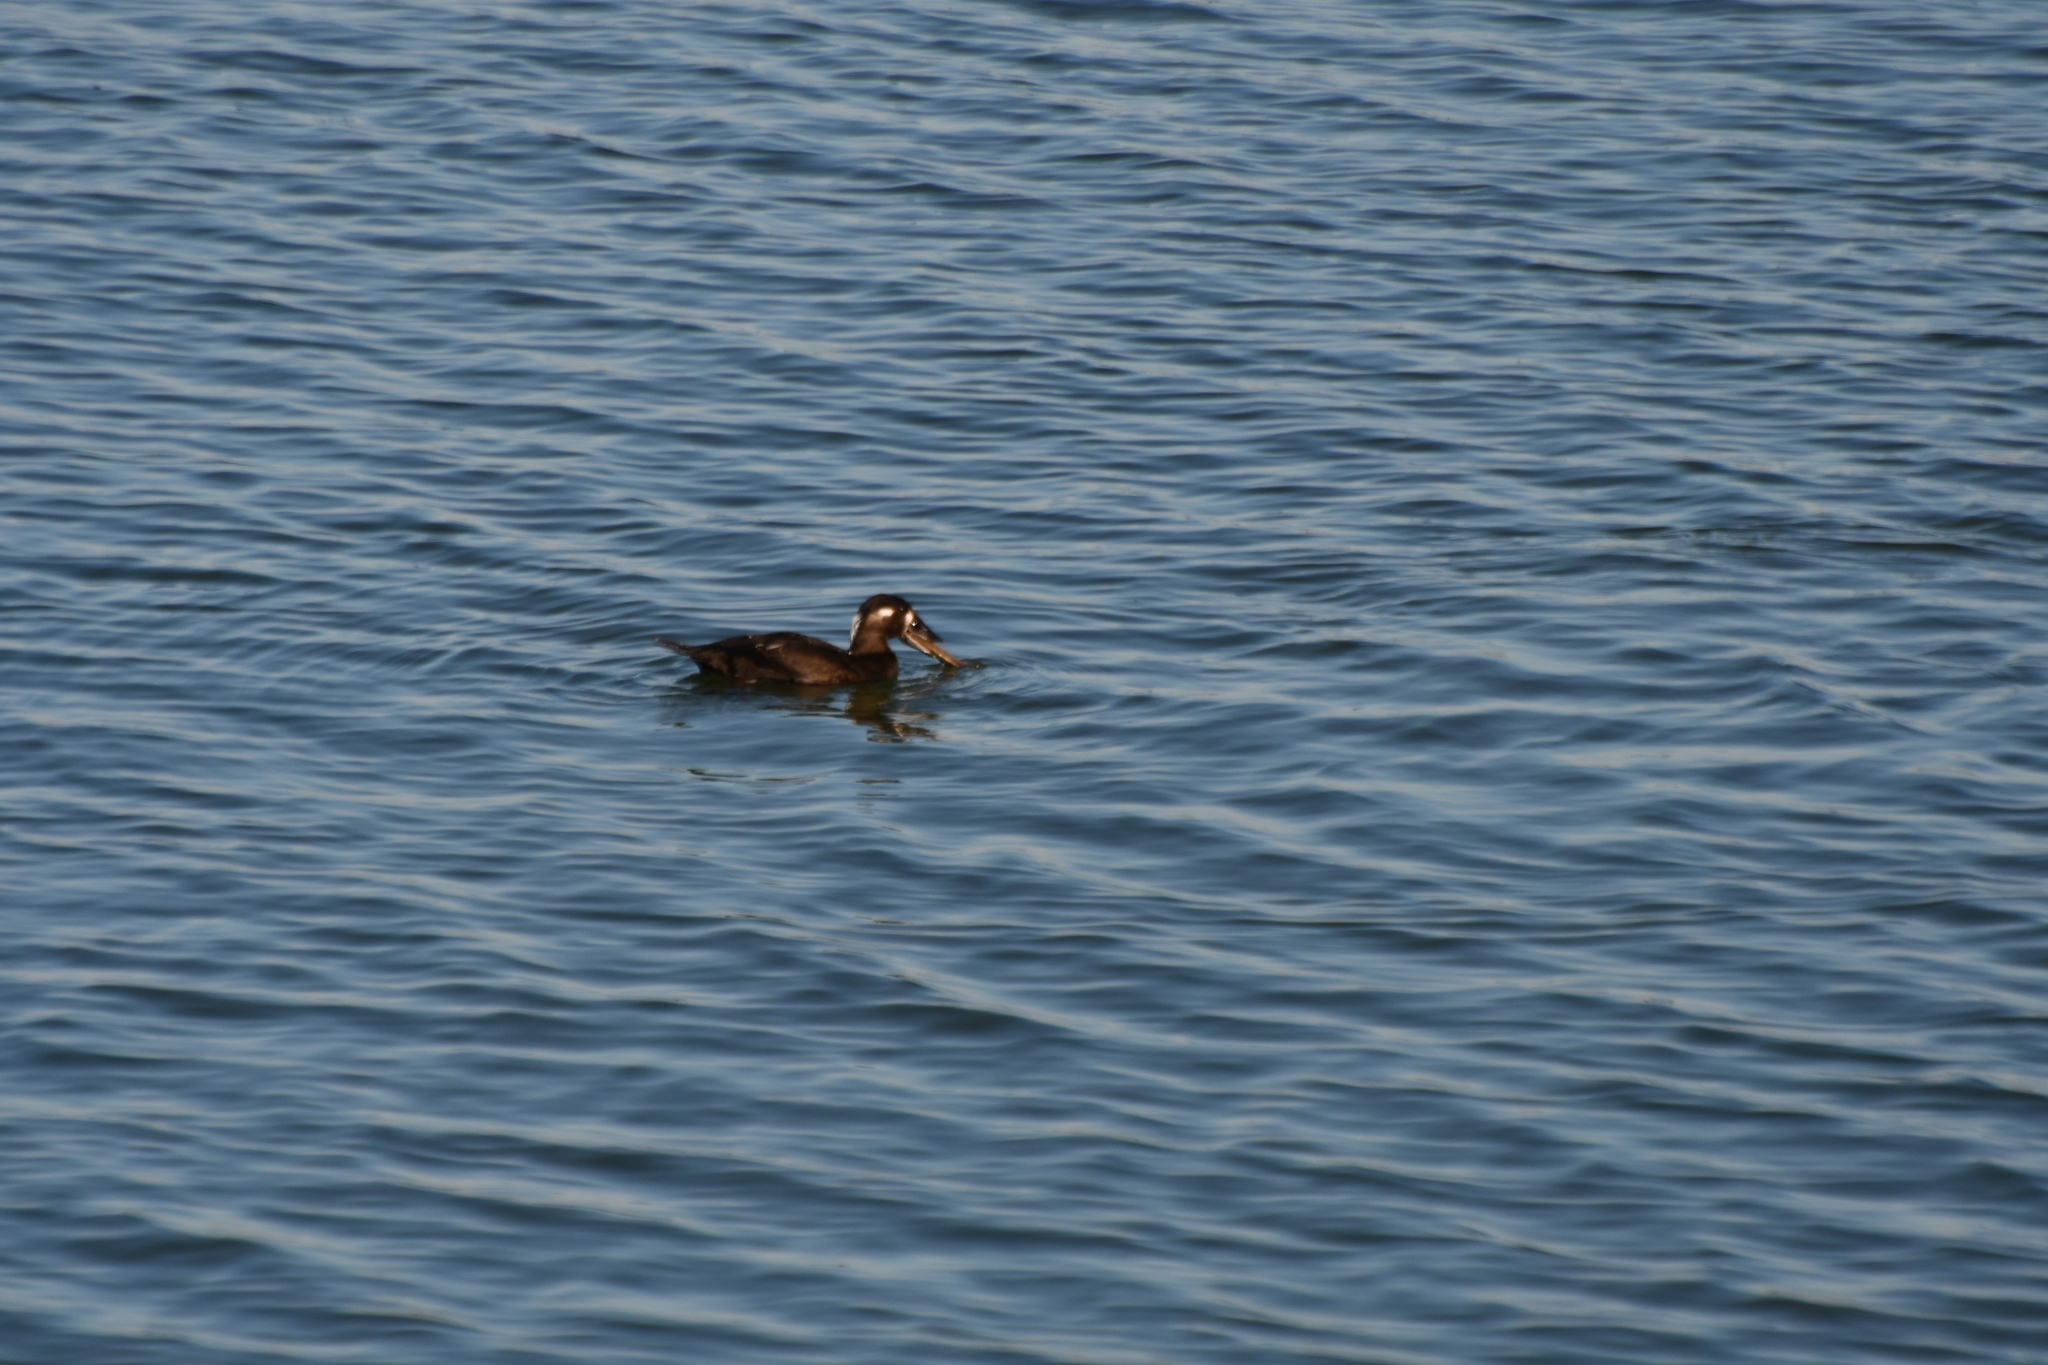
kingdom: Animalia
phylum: Chordata
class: Aves
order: Anseriformes
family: Anatidae
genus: Melanitta
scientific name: Melanitta perspicillata
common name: Surf scoter
